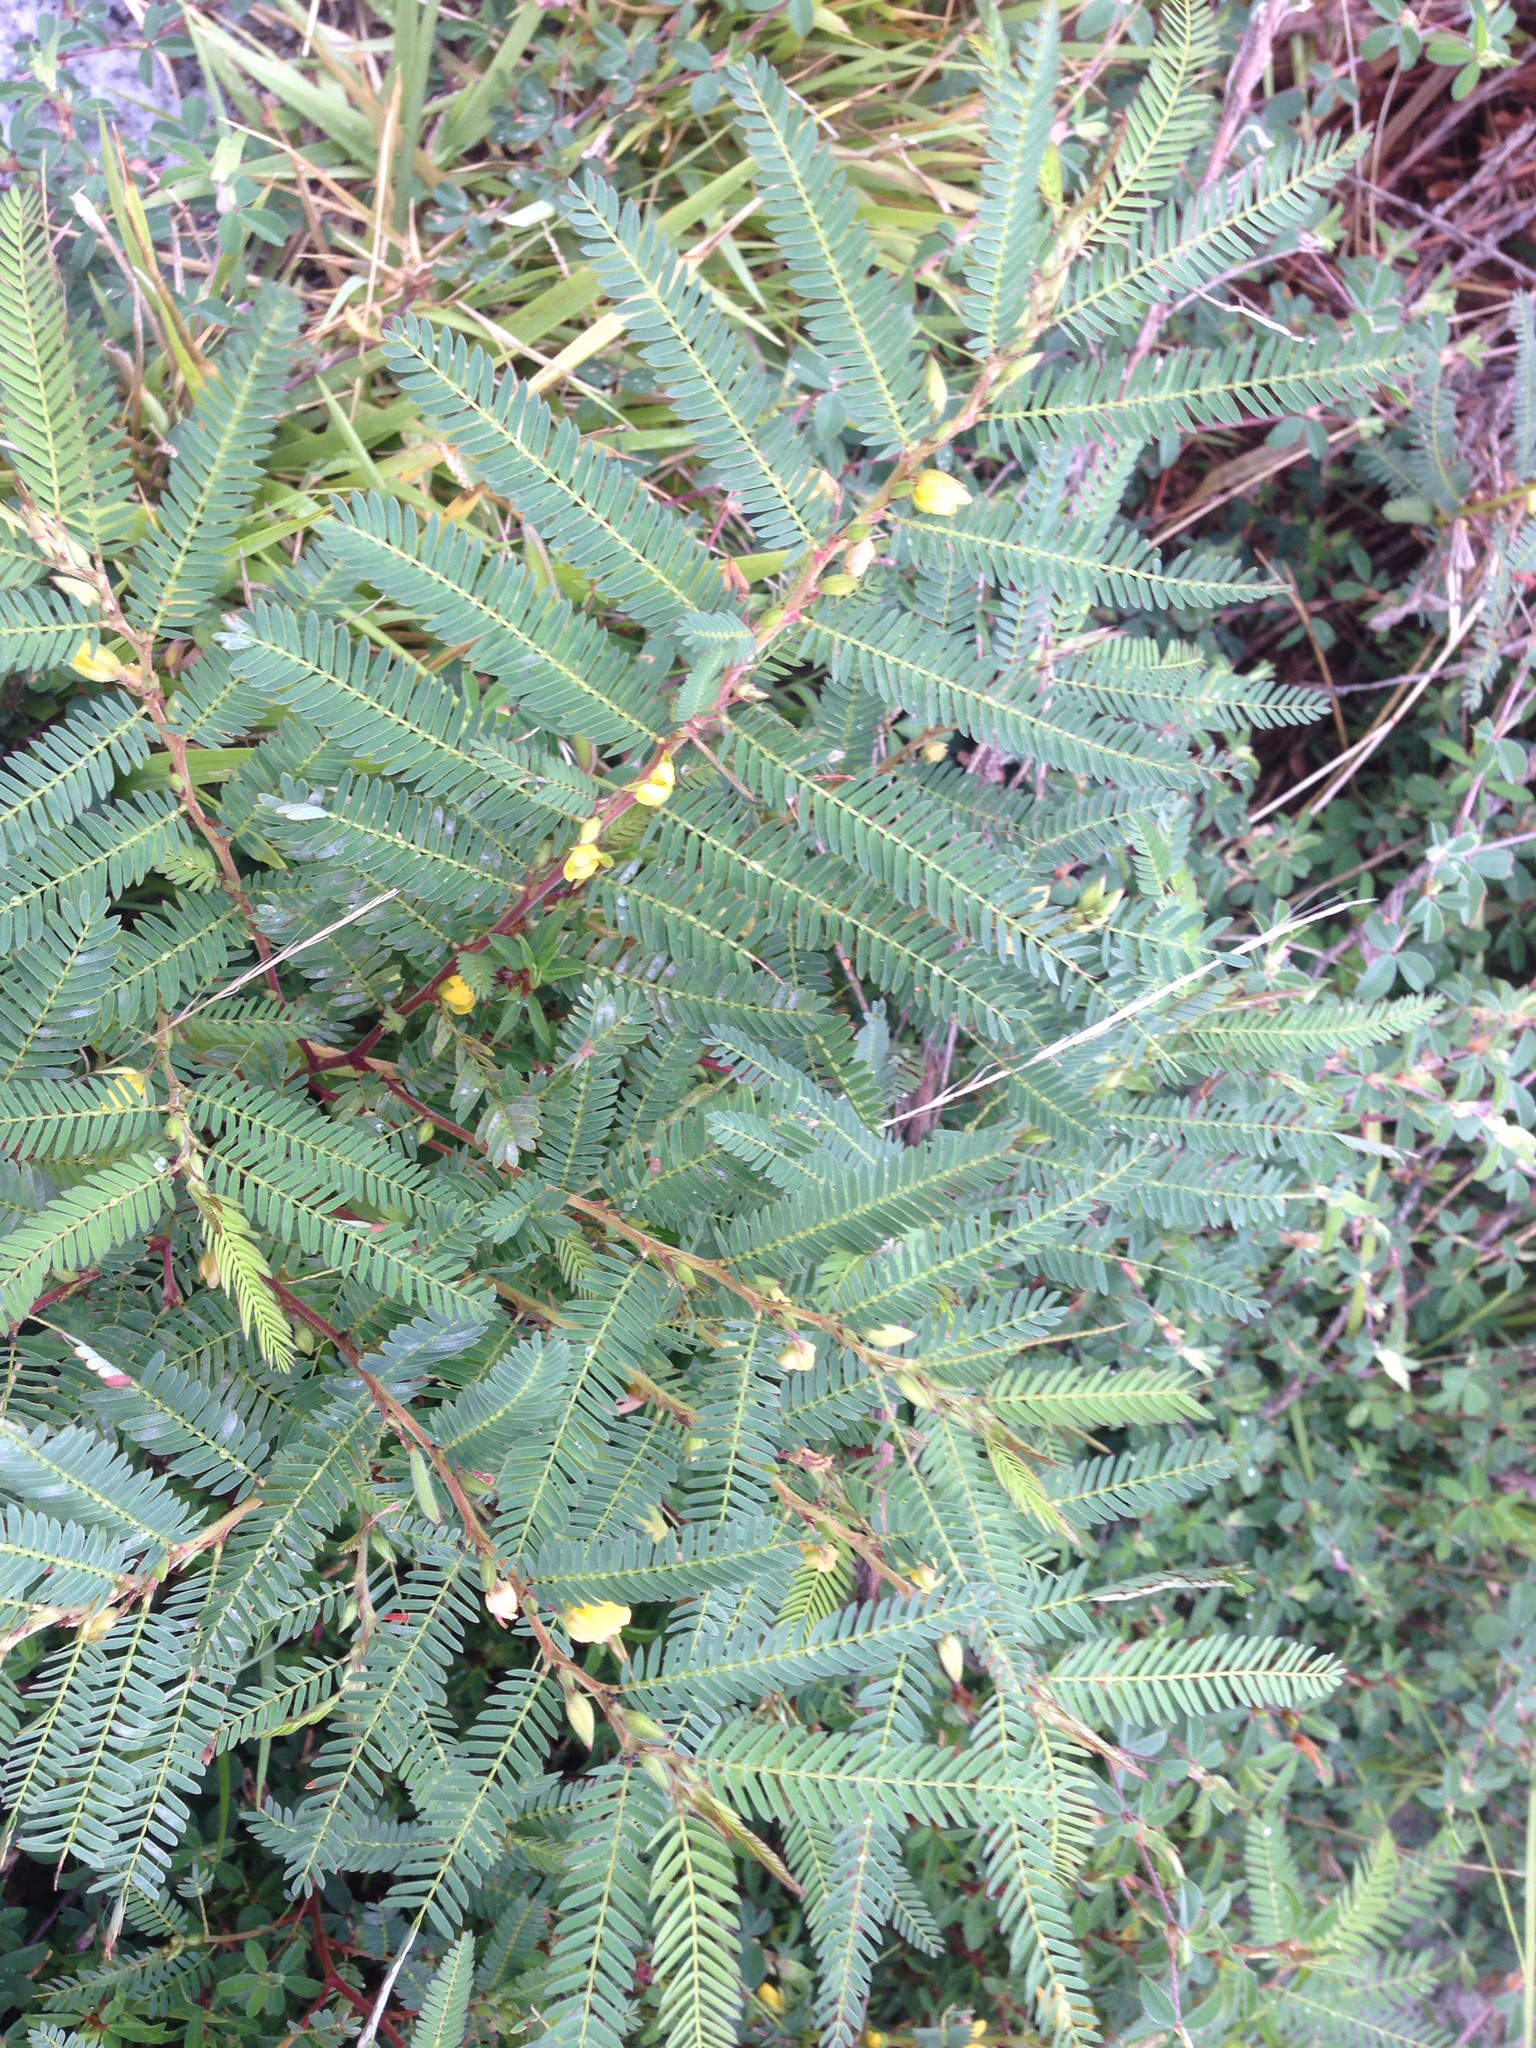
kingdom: Plantae
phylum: Tracheophyta
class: Magnoliopsida
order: Fabales
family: Fabaceae
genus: Chamaecrista
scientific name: Chamaecrista nomame
